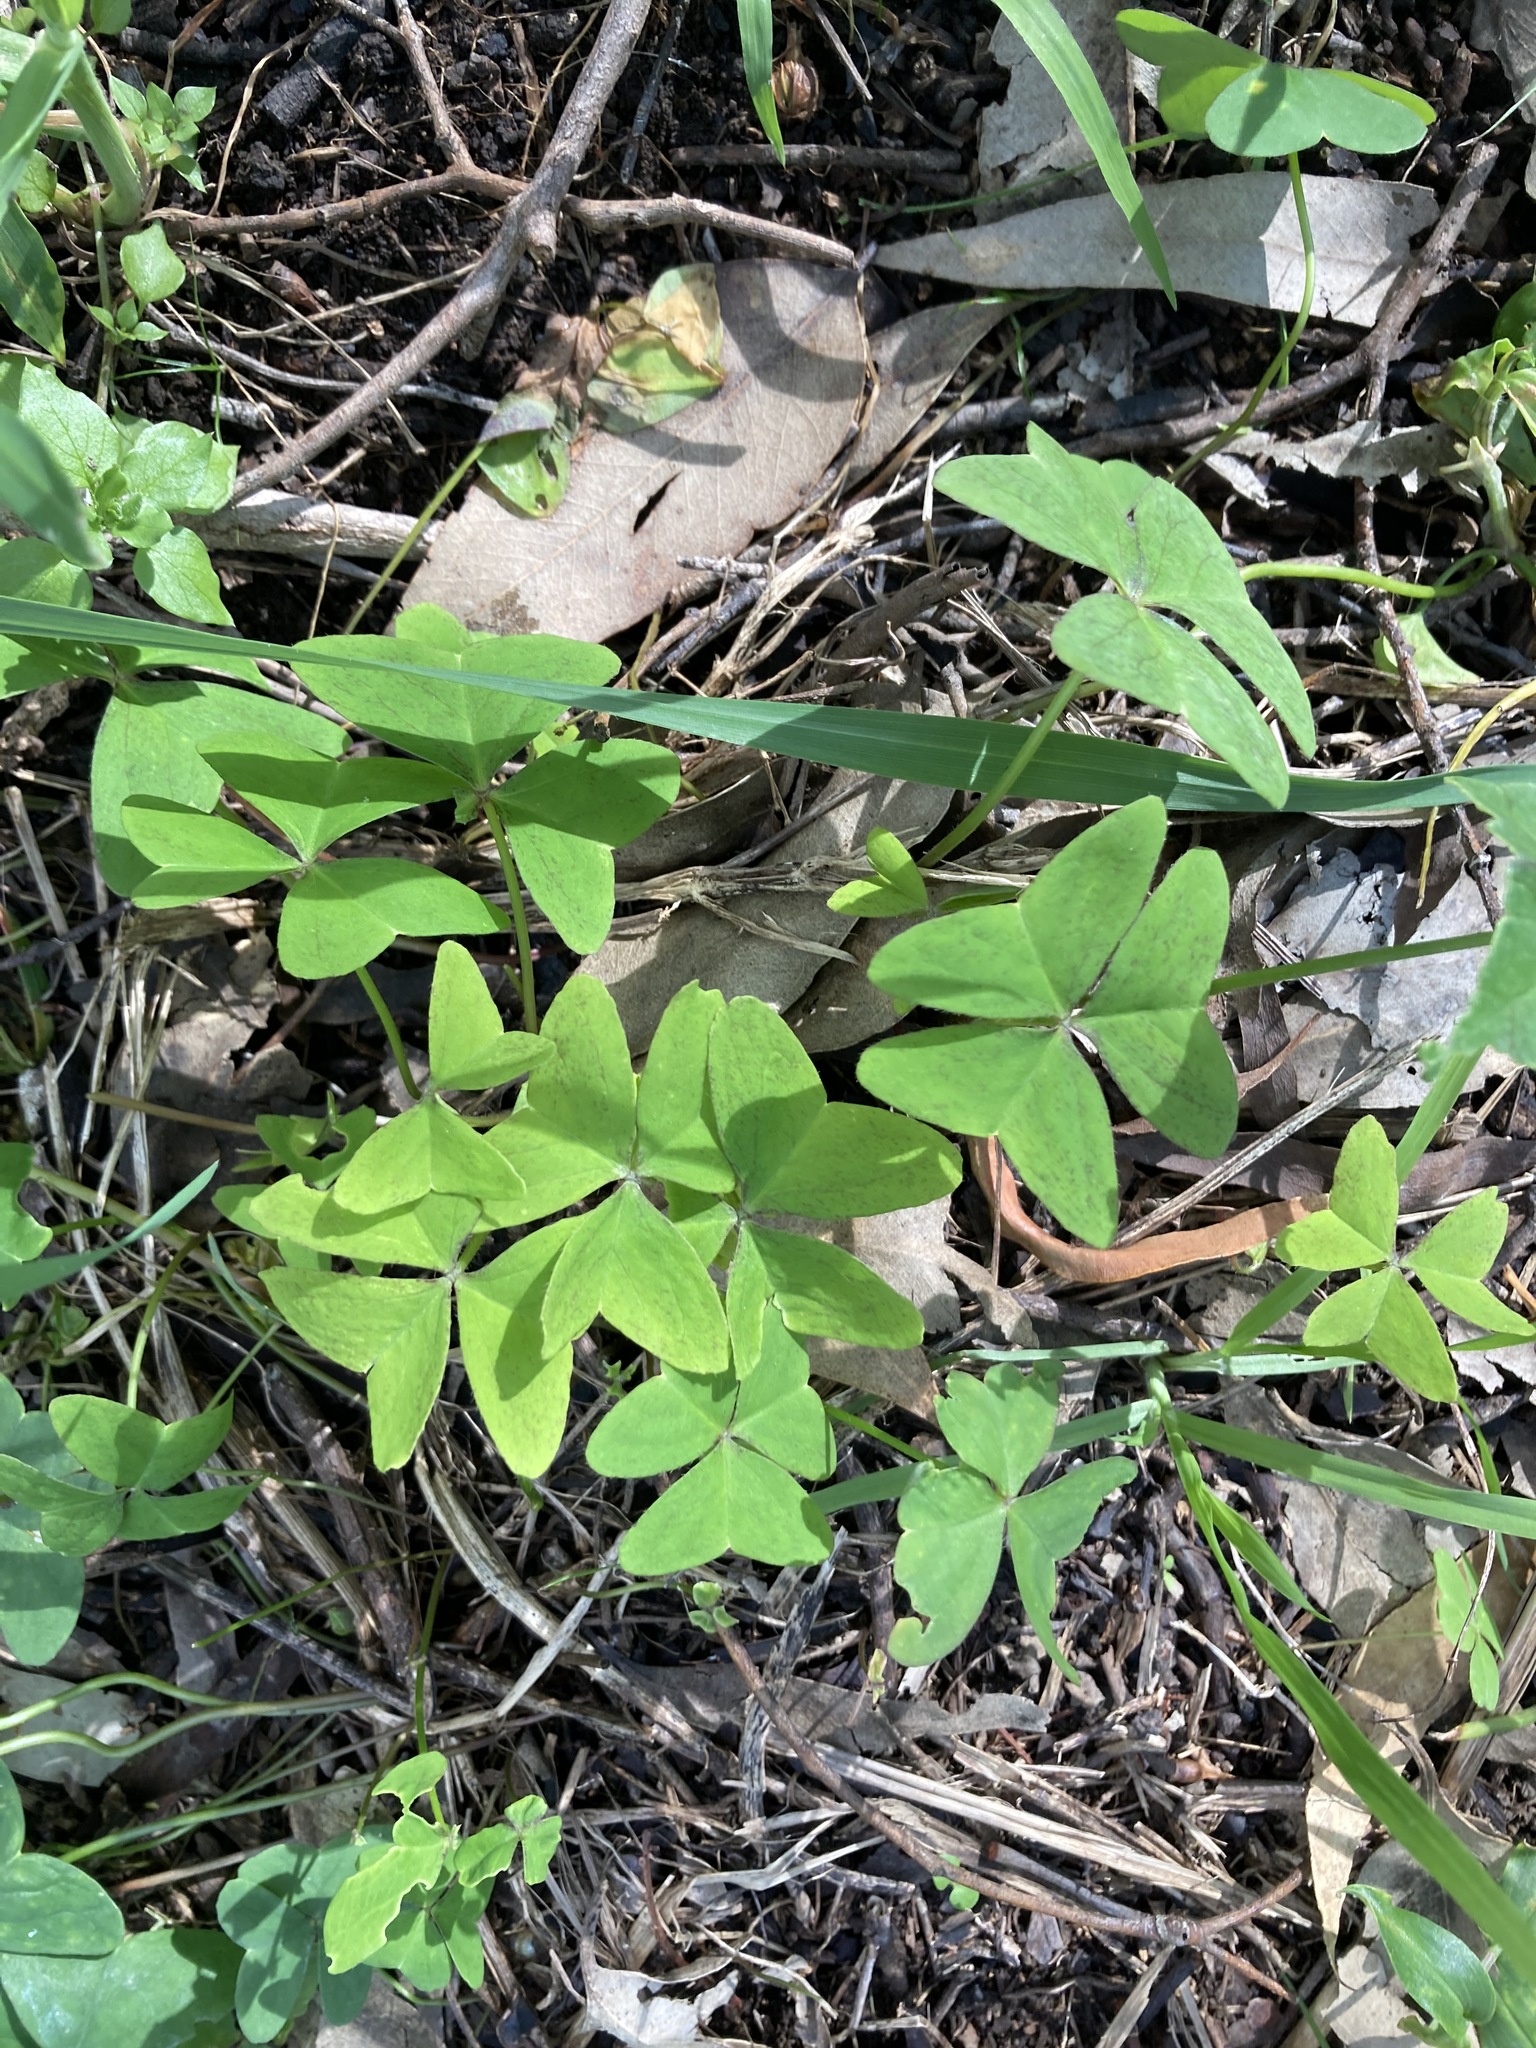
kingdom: Plantae
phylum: Tracheophyta
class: Magnoliopsida
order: Oxalidales
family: Oxalidaceae
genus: Oxalis
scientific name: Oxalis latifolia
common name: Garden pink-sorrel
